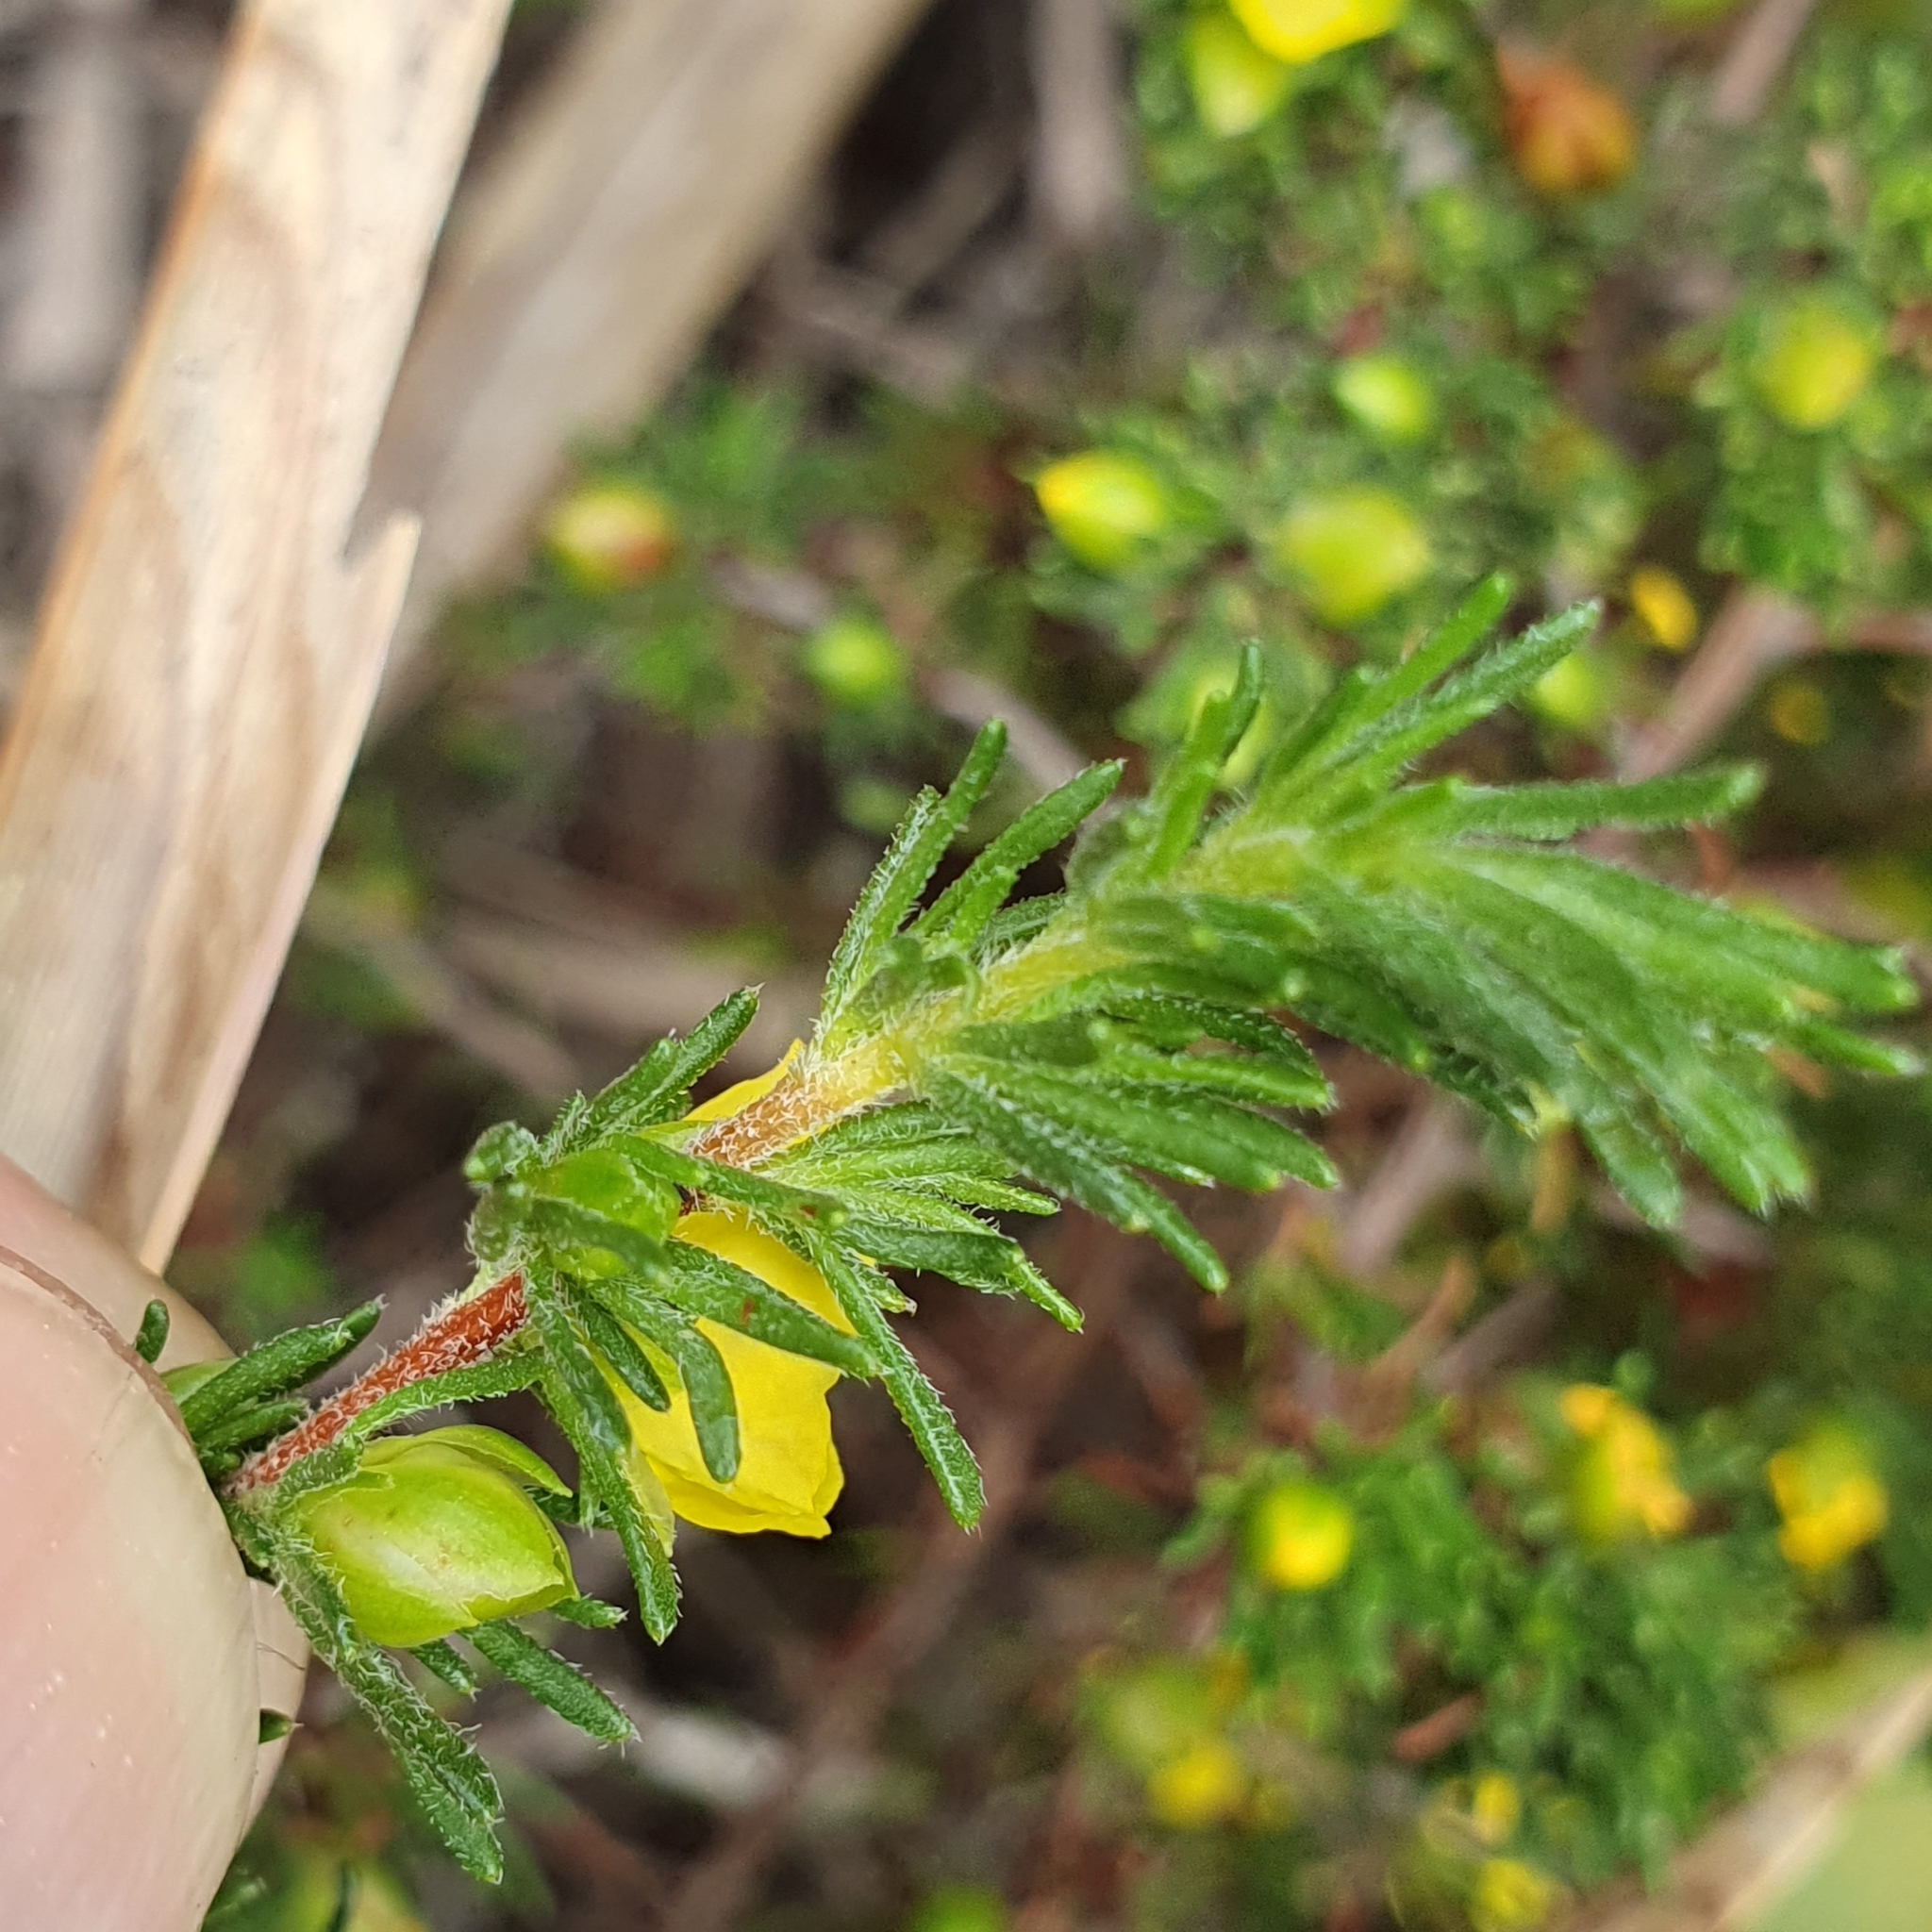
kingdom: Plantae
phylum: Tracheophyta
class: Magnoliopsida
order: Dilleniales
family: Dilleniaceae
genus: Hibbertia
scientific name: Hibbertia fasciculata
